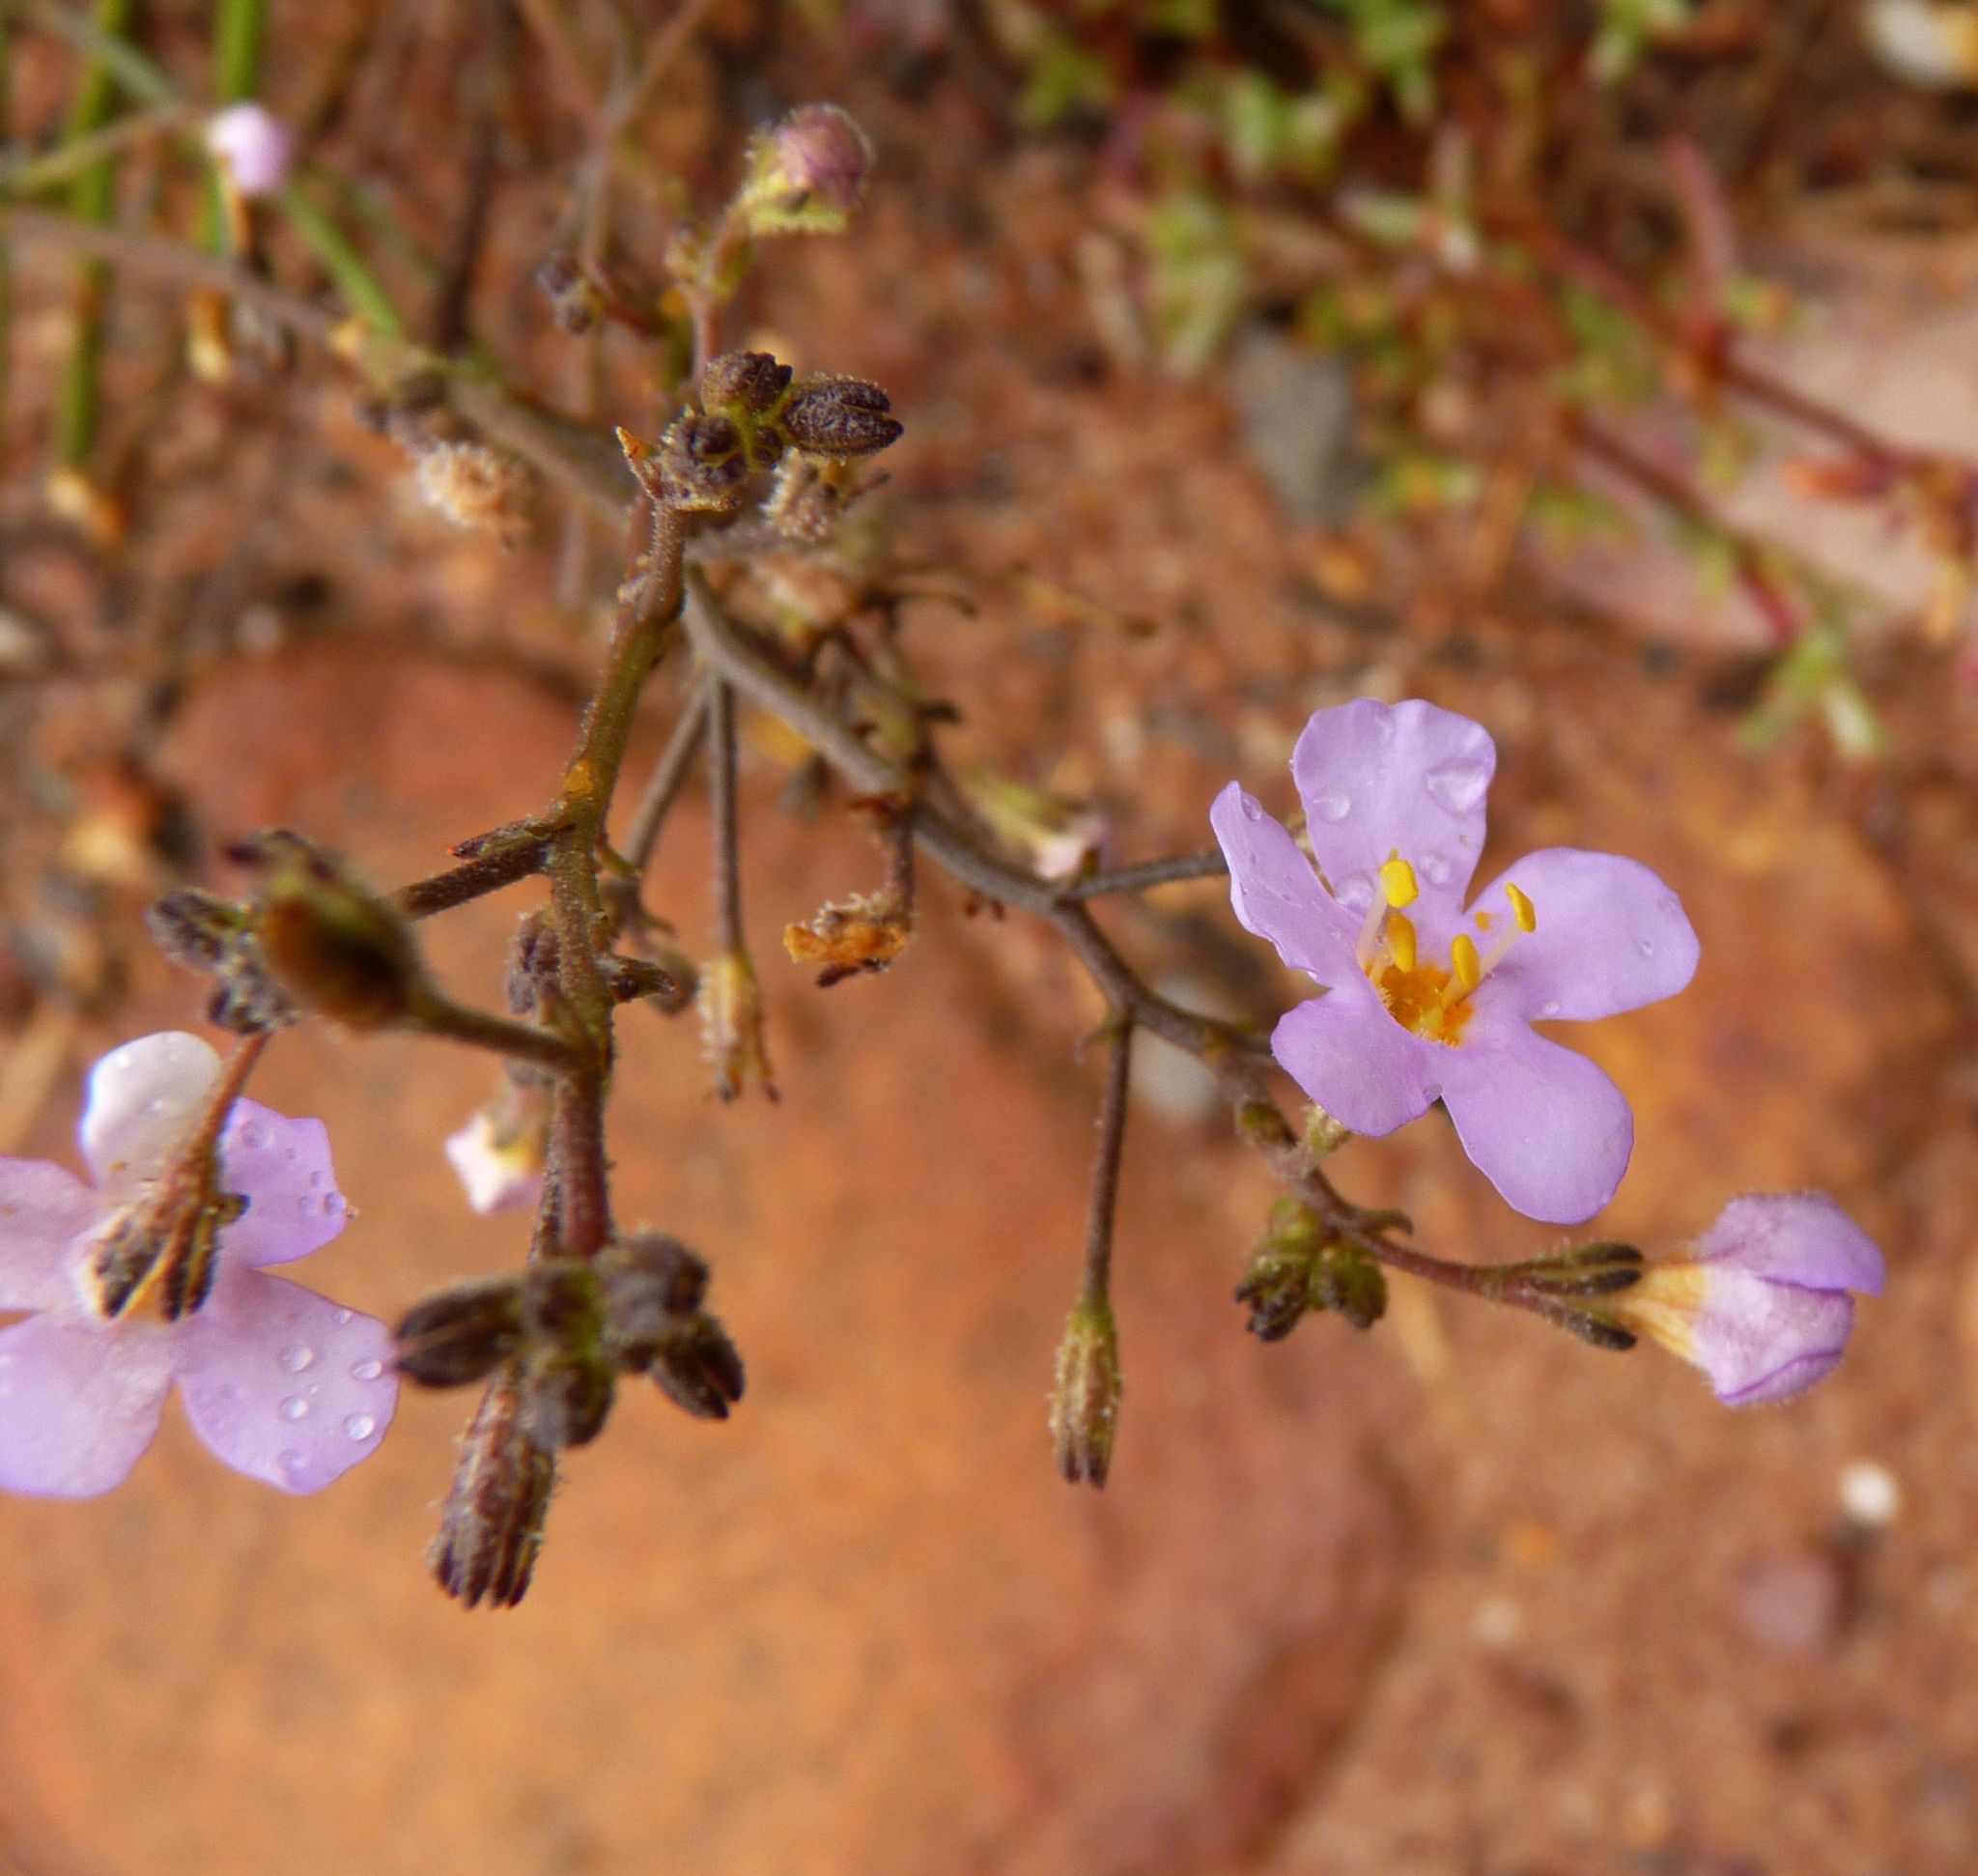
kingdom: Plantae
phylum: Tracheophyta
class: Magnoliopsida
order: Lamiales
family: Scrophulariaceae
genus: Chaenostoma
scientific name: Chaenostoma subnudum
